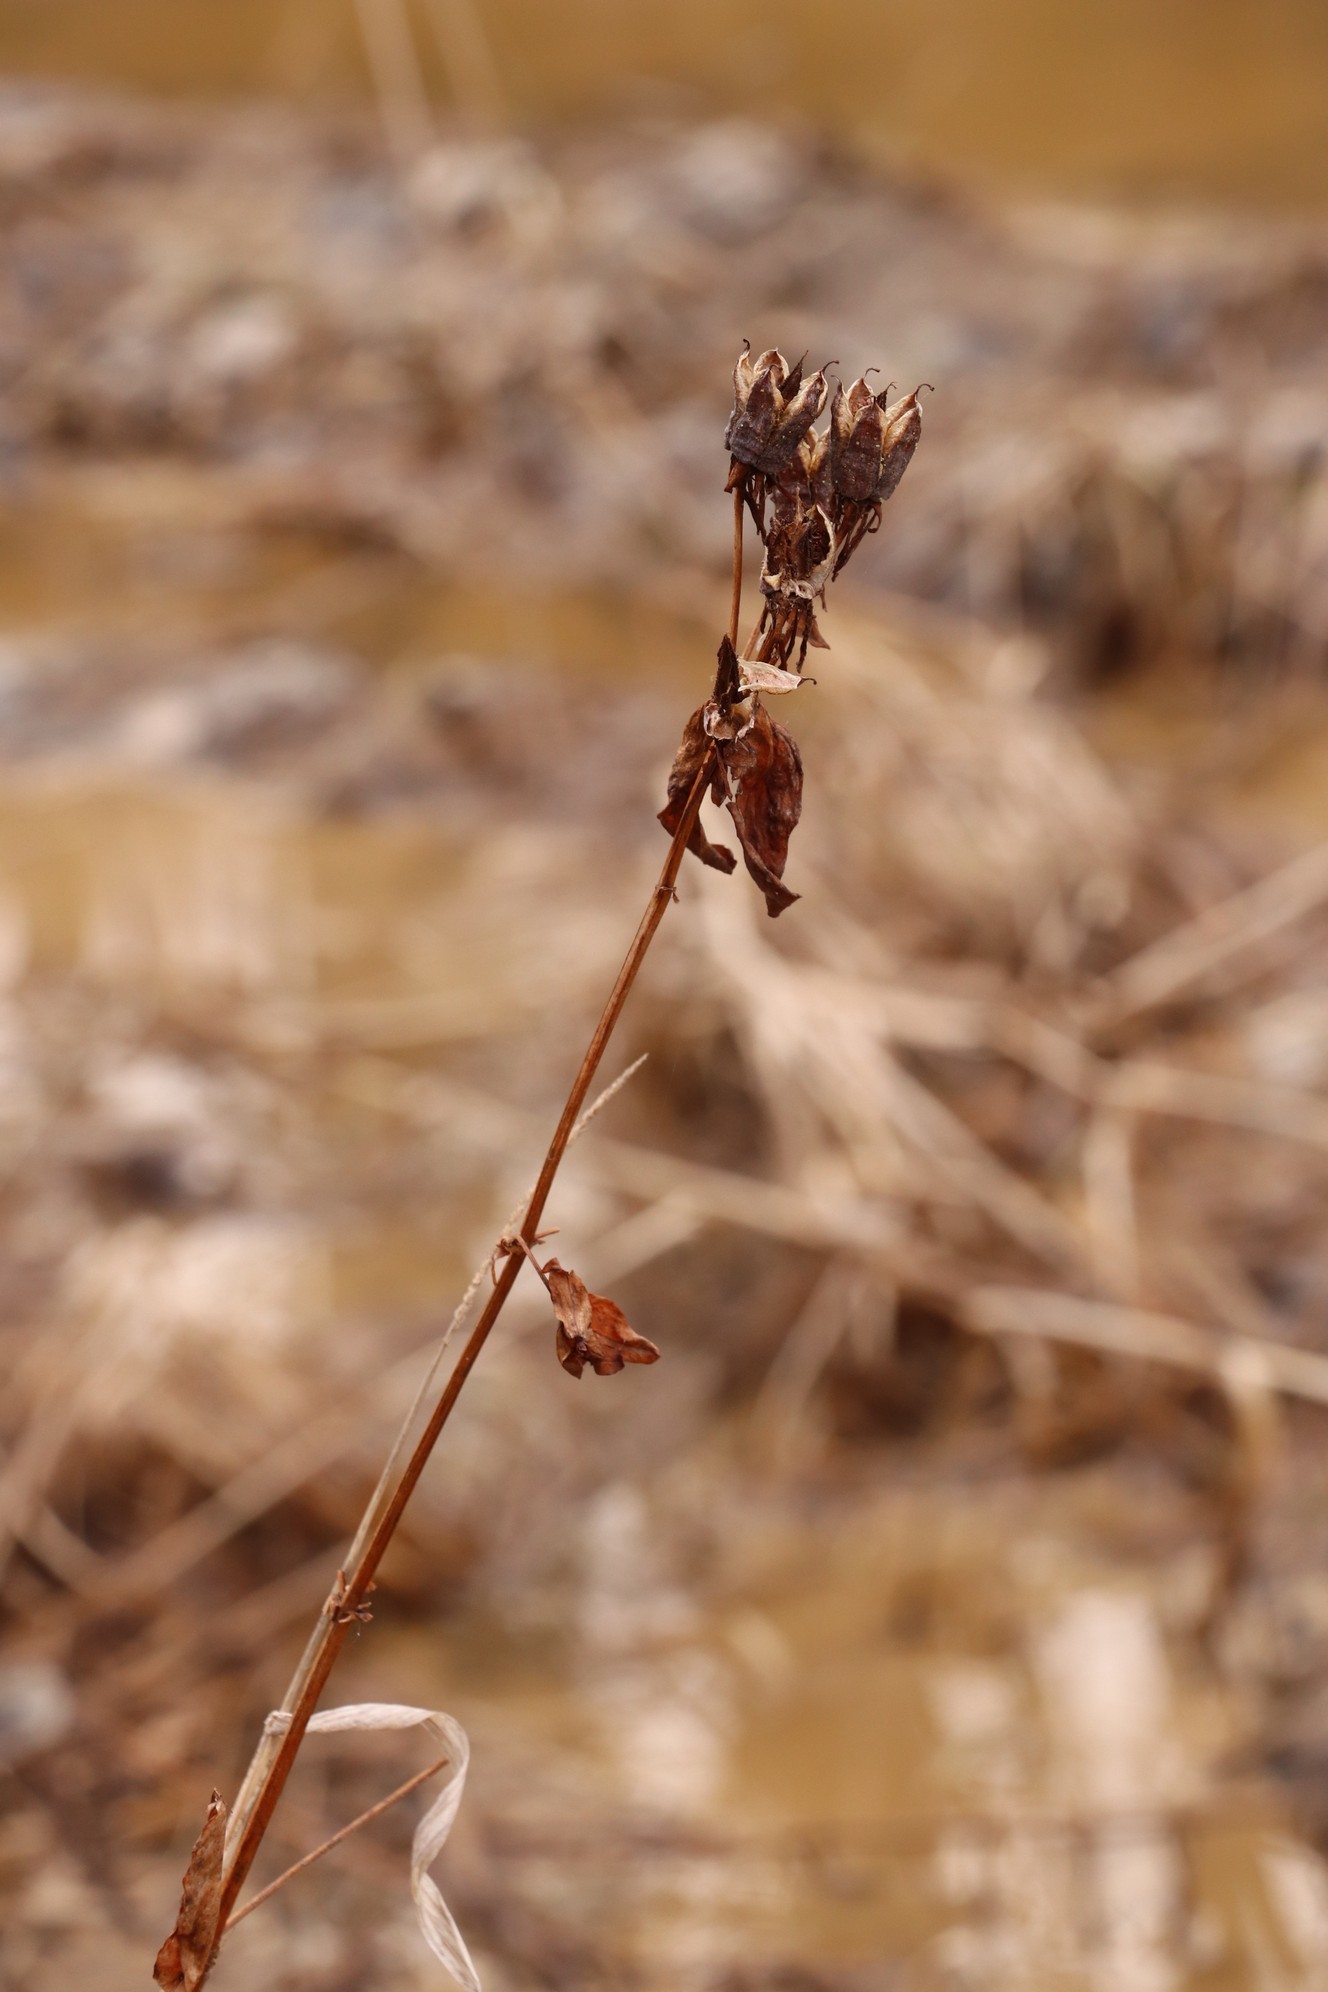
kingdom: Plantae
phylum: Tracheophyta
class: Magnoliopsida
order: Malpighiales
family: Hypericaceae
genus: Hypericum
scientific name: Hypericum ascyron
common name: Giant st. john's-wort
